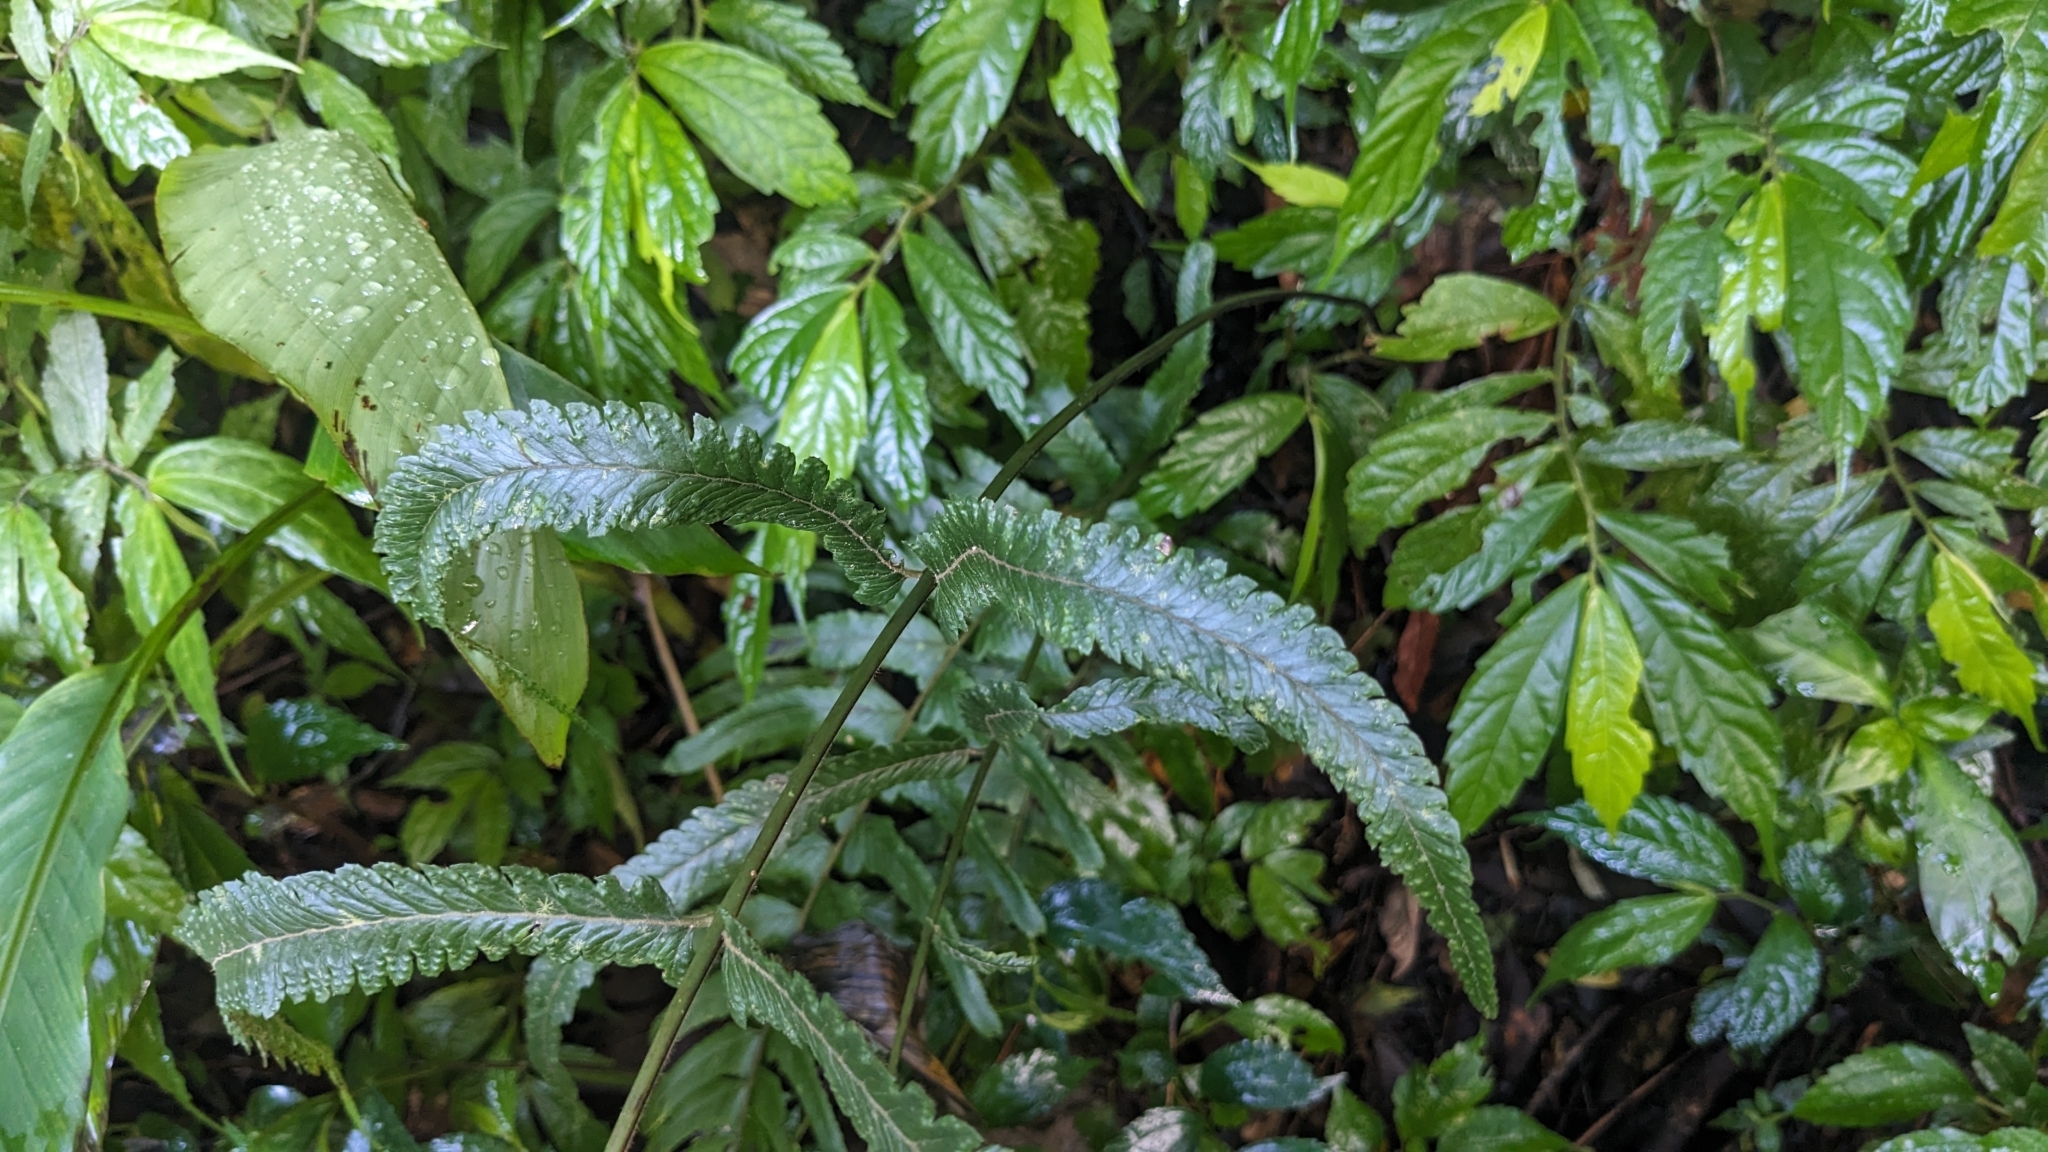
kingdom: Plantae
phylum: Tracheophyta
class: Polypodiopsida
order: Polypodiales
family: Dennstaedtiaceae
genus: Microlepia
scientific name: Microlepia marginata
